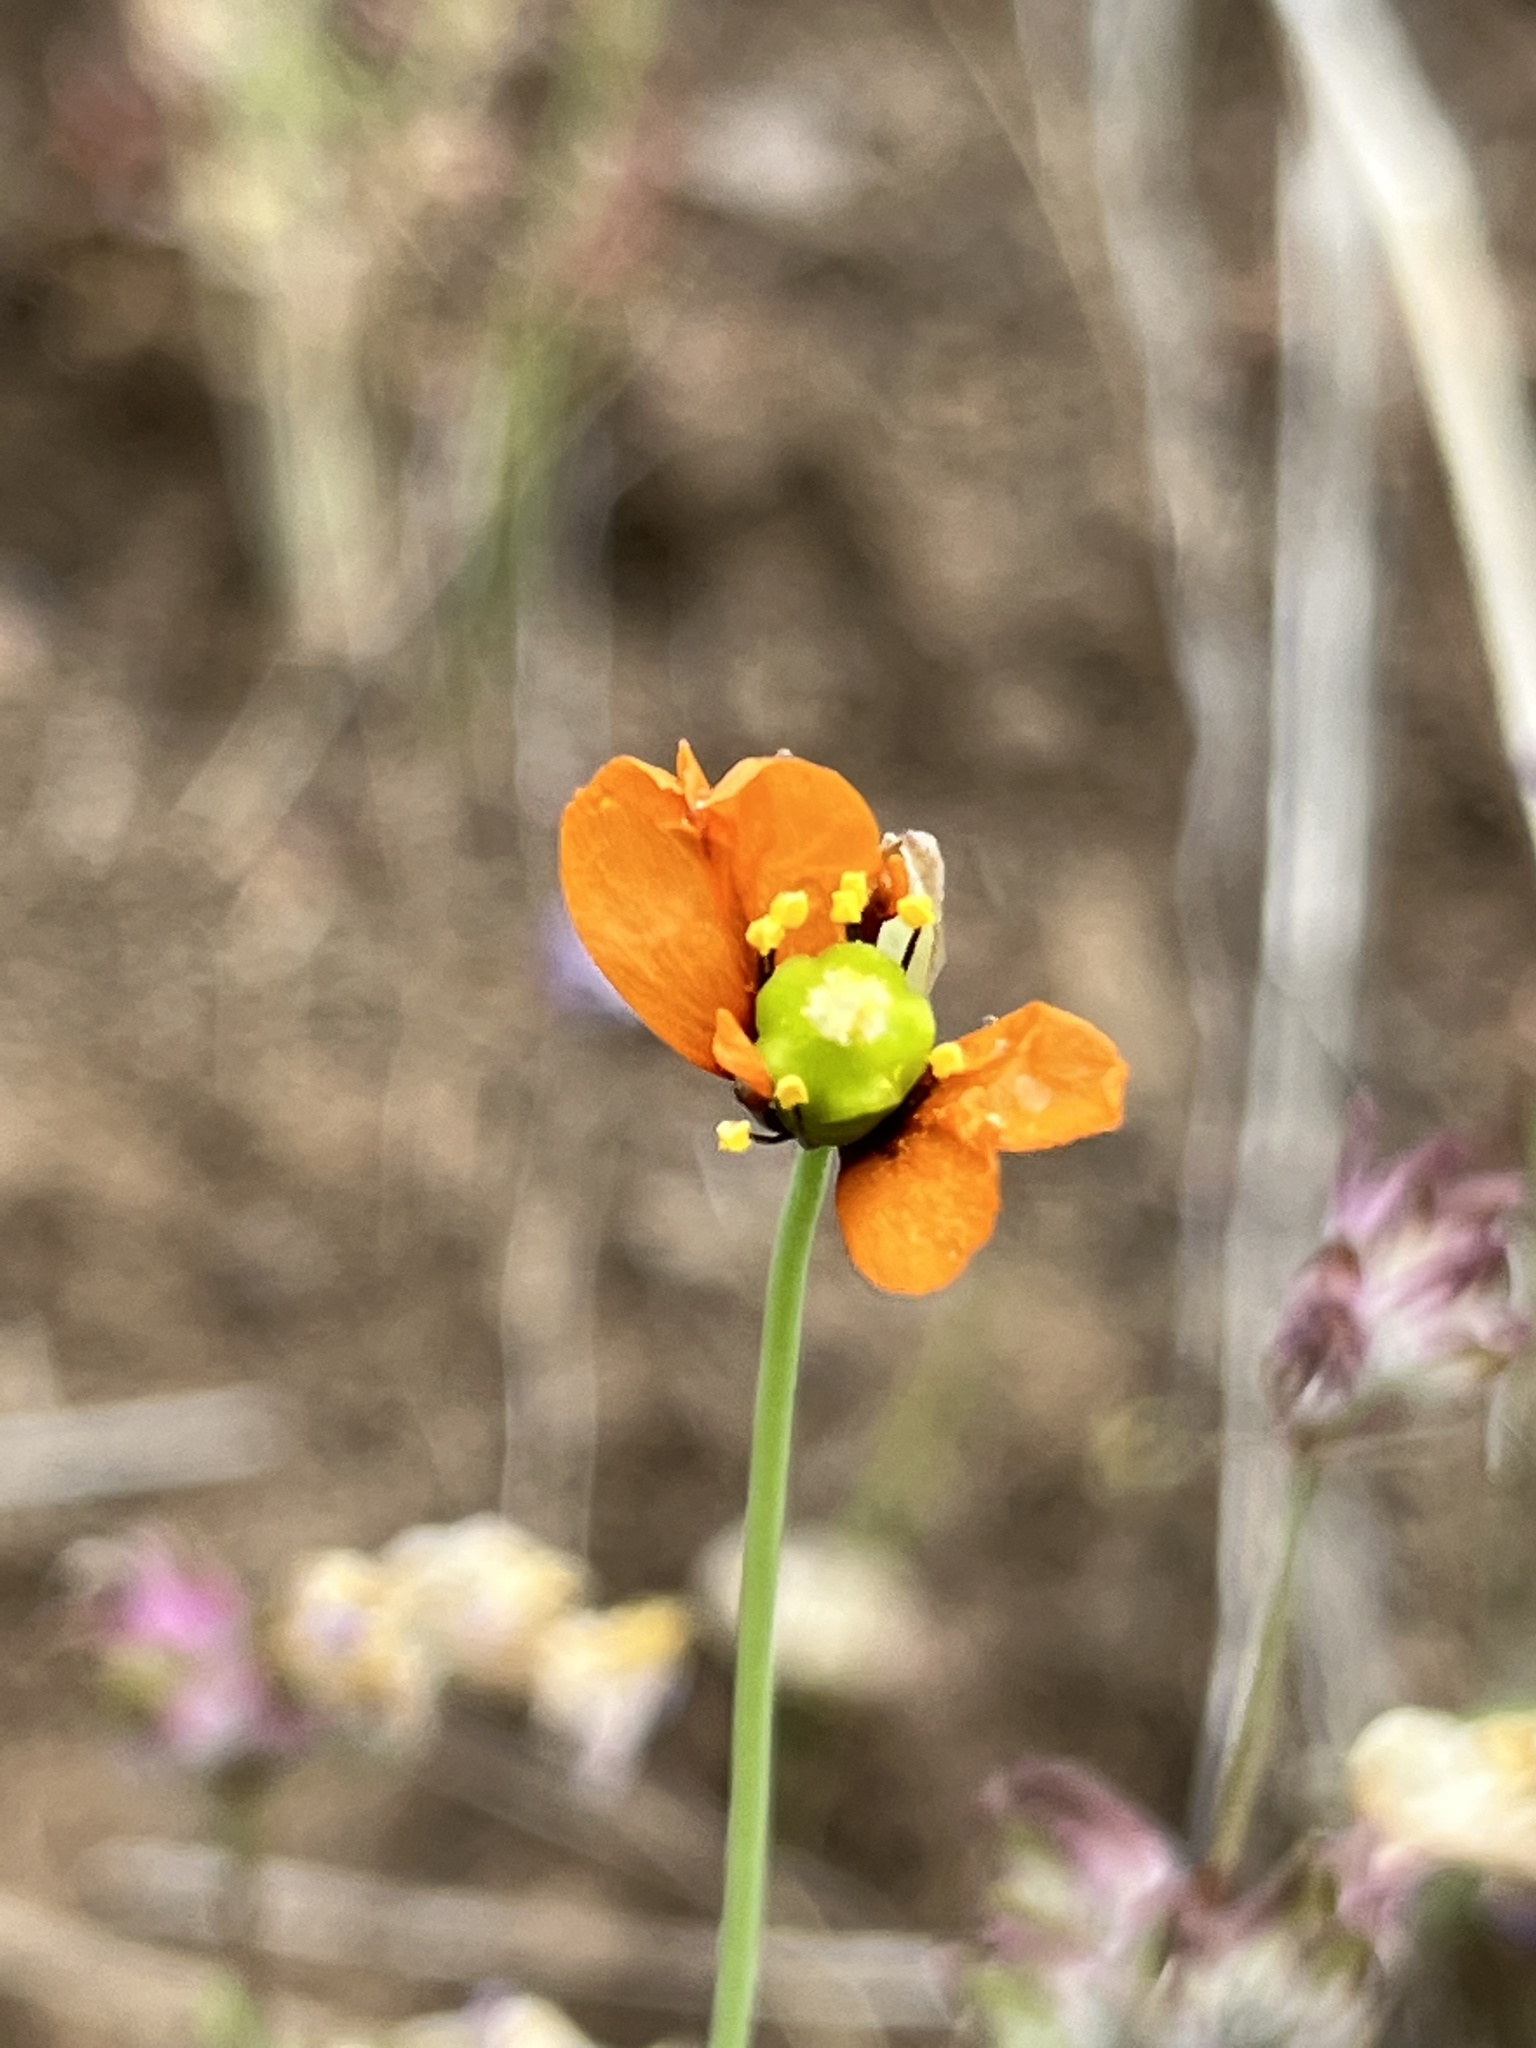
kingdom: Plantae
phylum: Tracheophyta
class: Magnoliopsida
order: Ranunculales
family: Papaveraceae
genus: Stylomecon
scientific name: Stylomecon heterophylla
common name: Flaming-poppy
